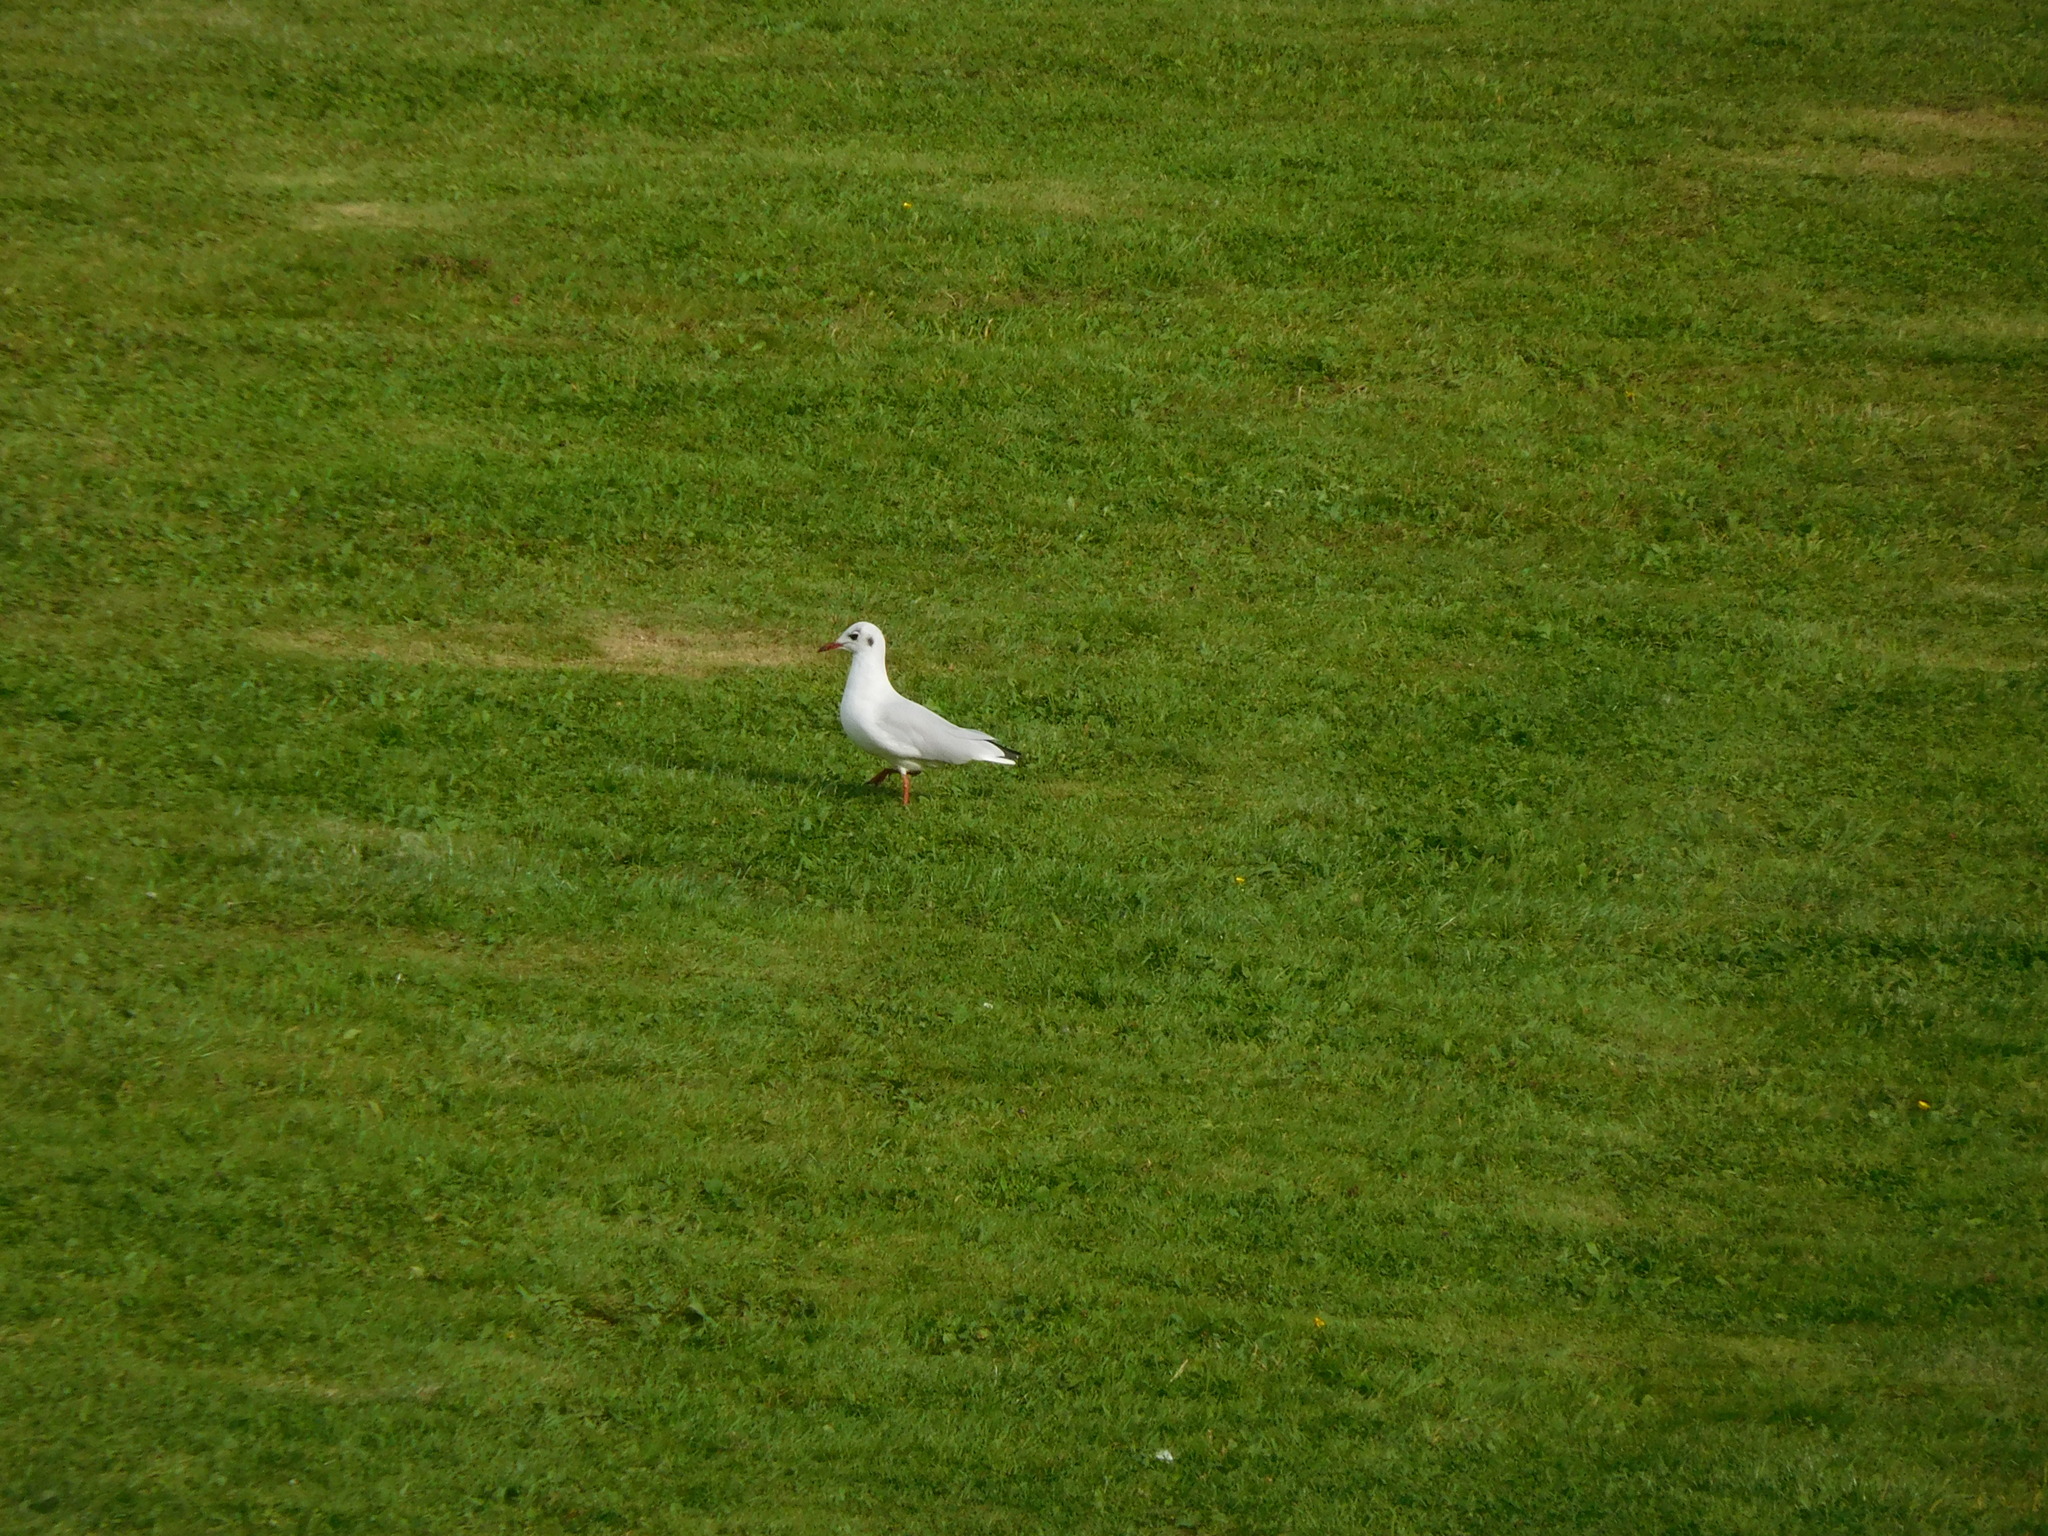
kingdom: Animalia
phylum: Chordata
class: Aves
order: Charadriiformes
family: Laridae
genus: Chroicocephalus
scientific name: Chroicocephalus ridibundus
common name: Black-headed gull
